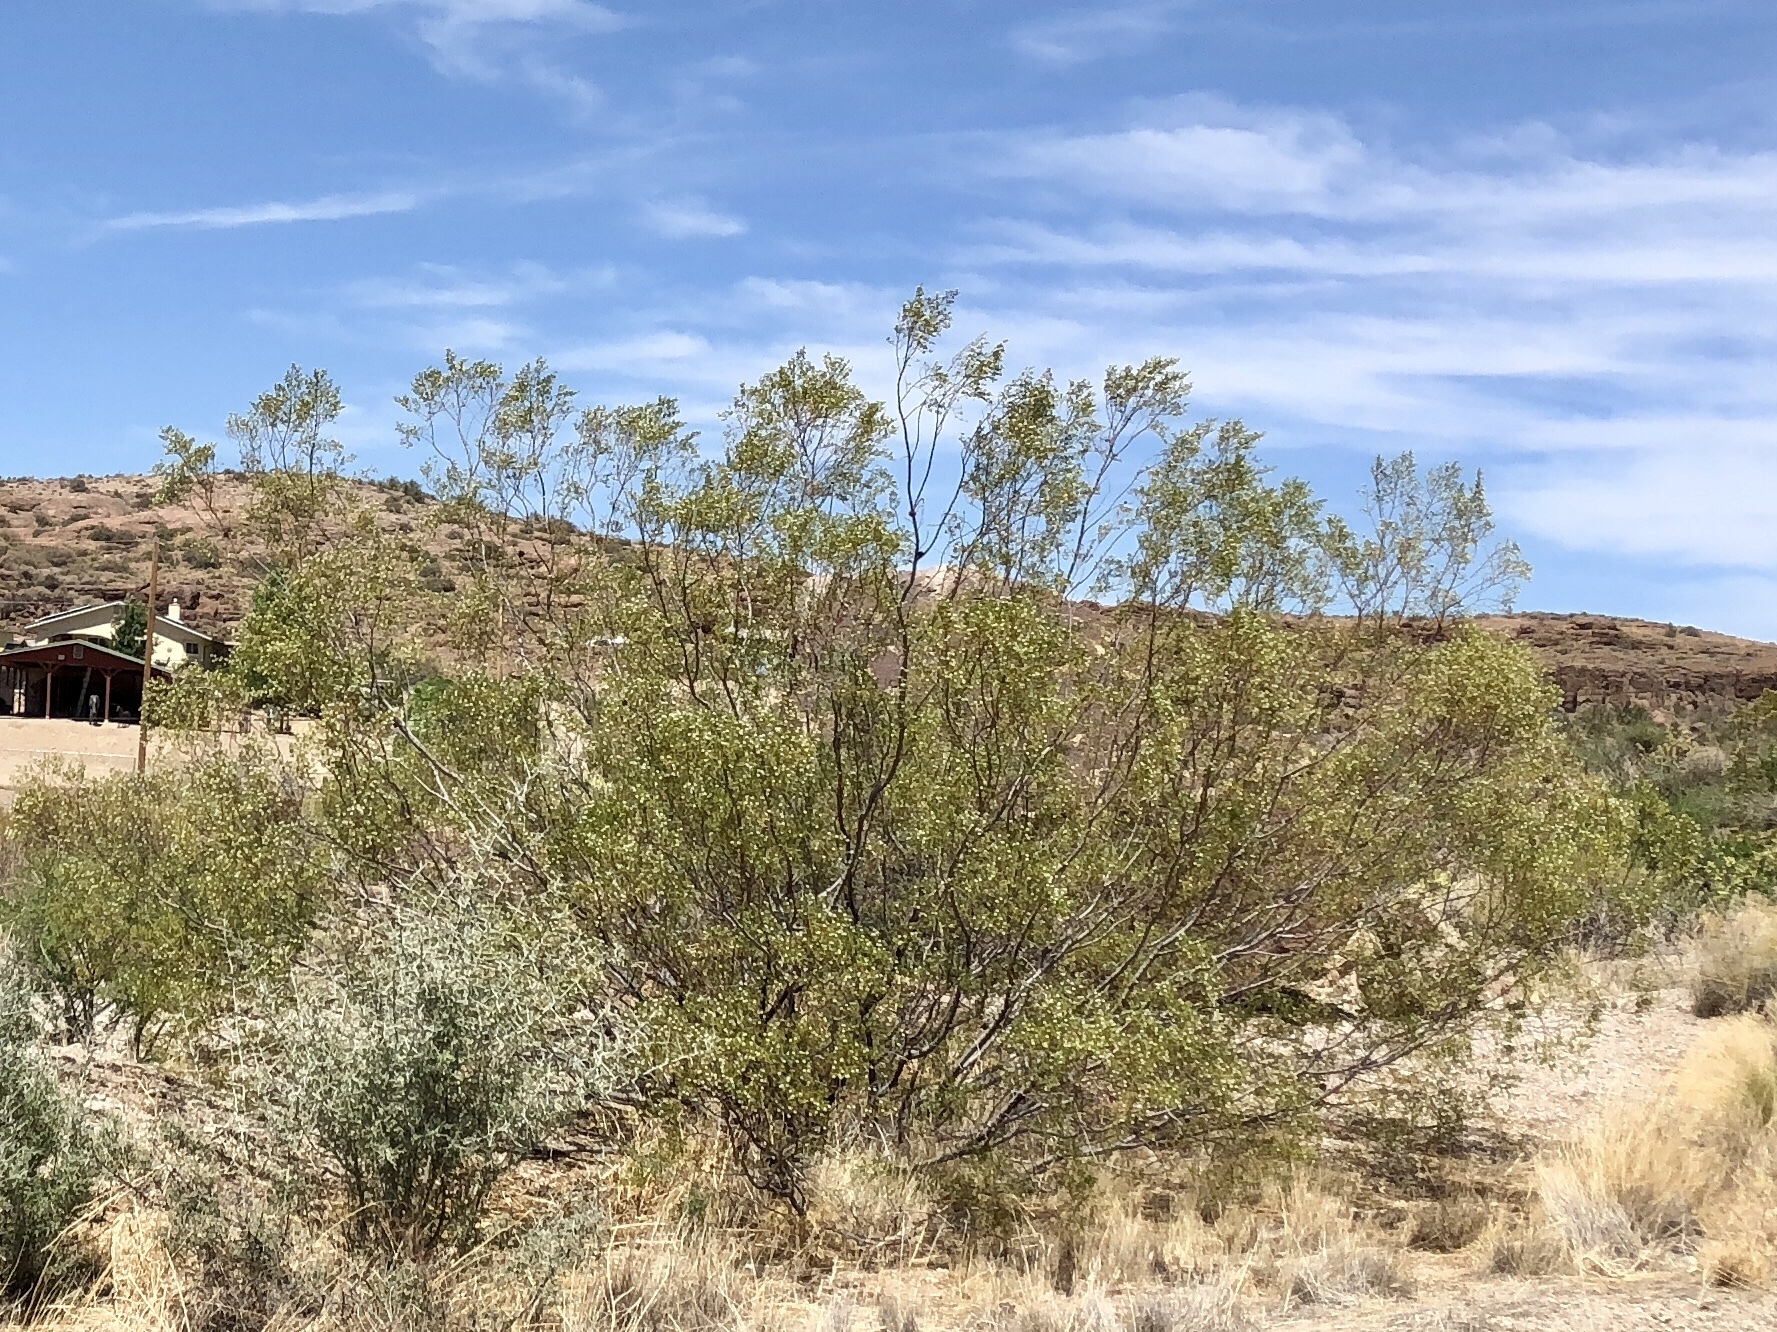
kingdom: Plantae
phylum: Tracheophyta
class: Magnoliopsida
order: Zygophyllales
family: Zygophyllaceae
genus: Larrea
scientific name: Larrea tridentata
